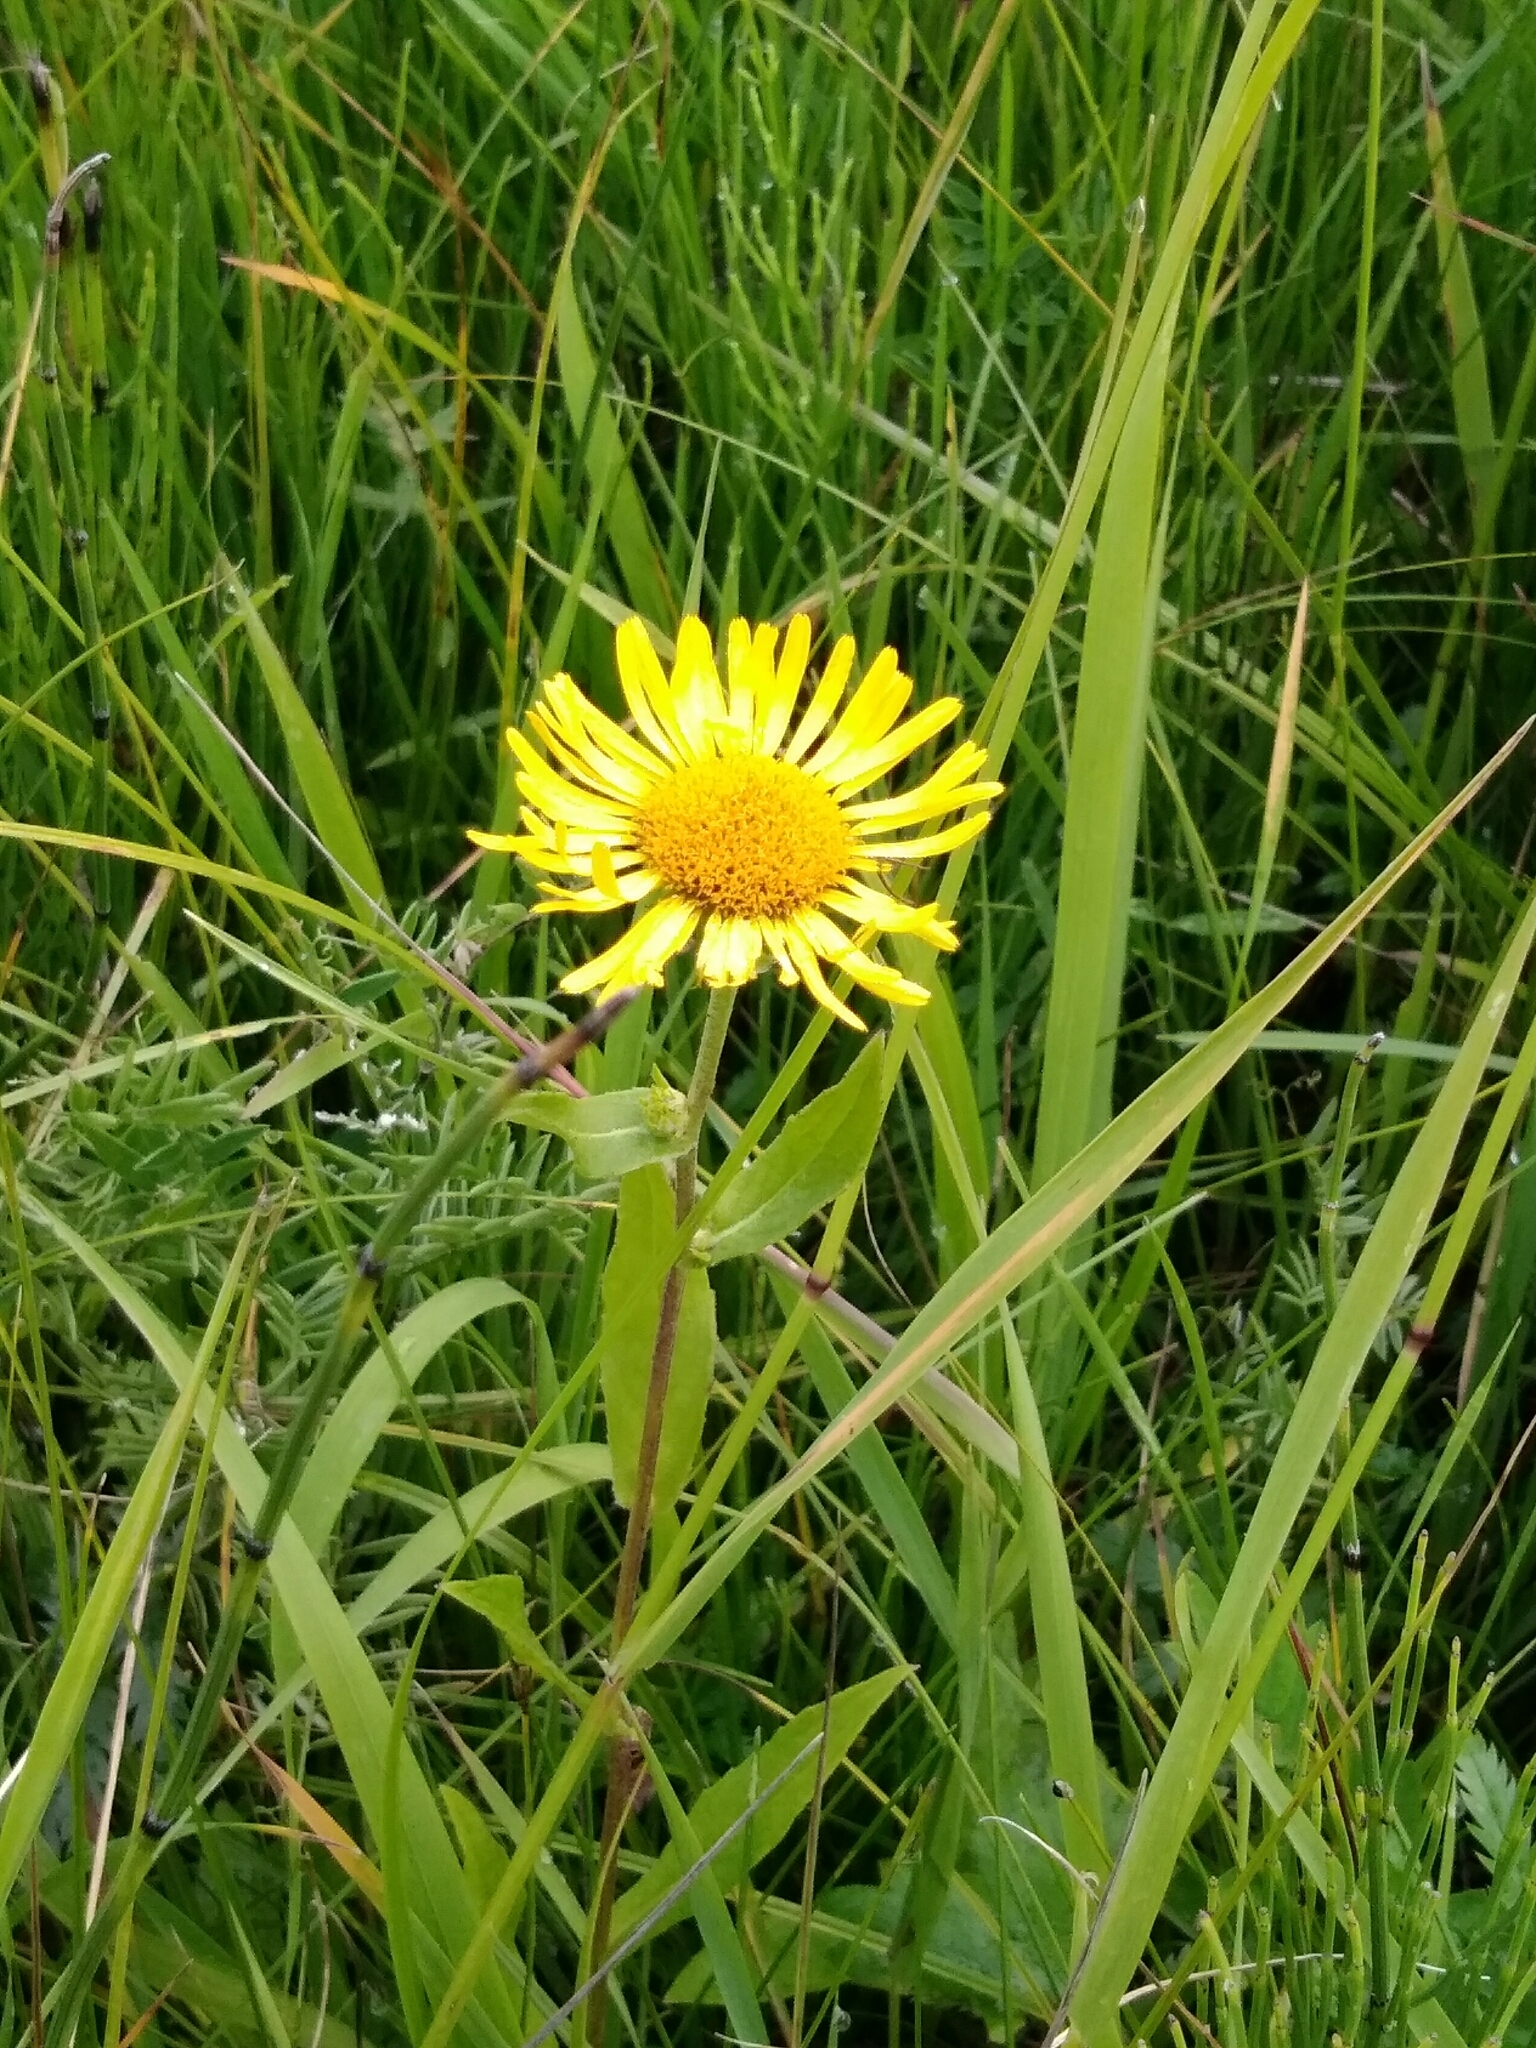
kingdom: Plantae
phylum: Tracheophyta
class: Magnoliopsida
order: Asterales
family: Asteraceae
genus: Pentanema
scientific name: Pentanema salicinum
